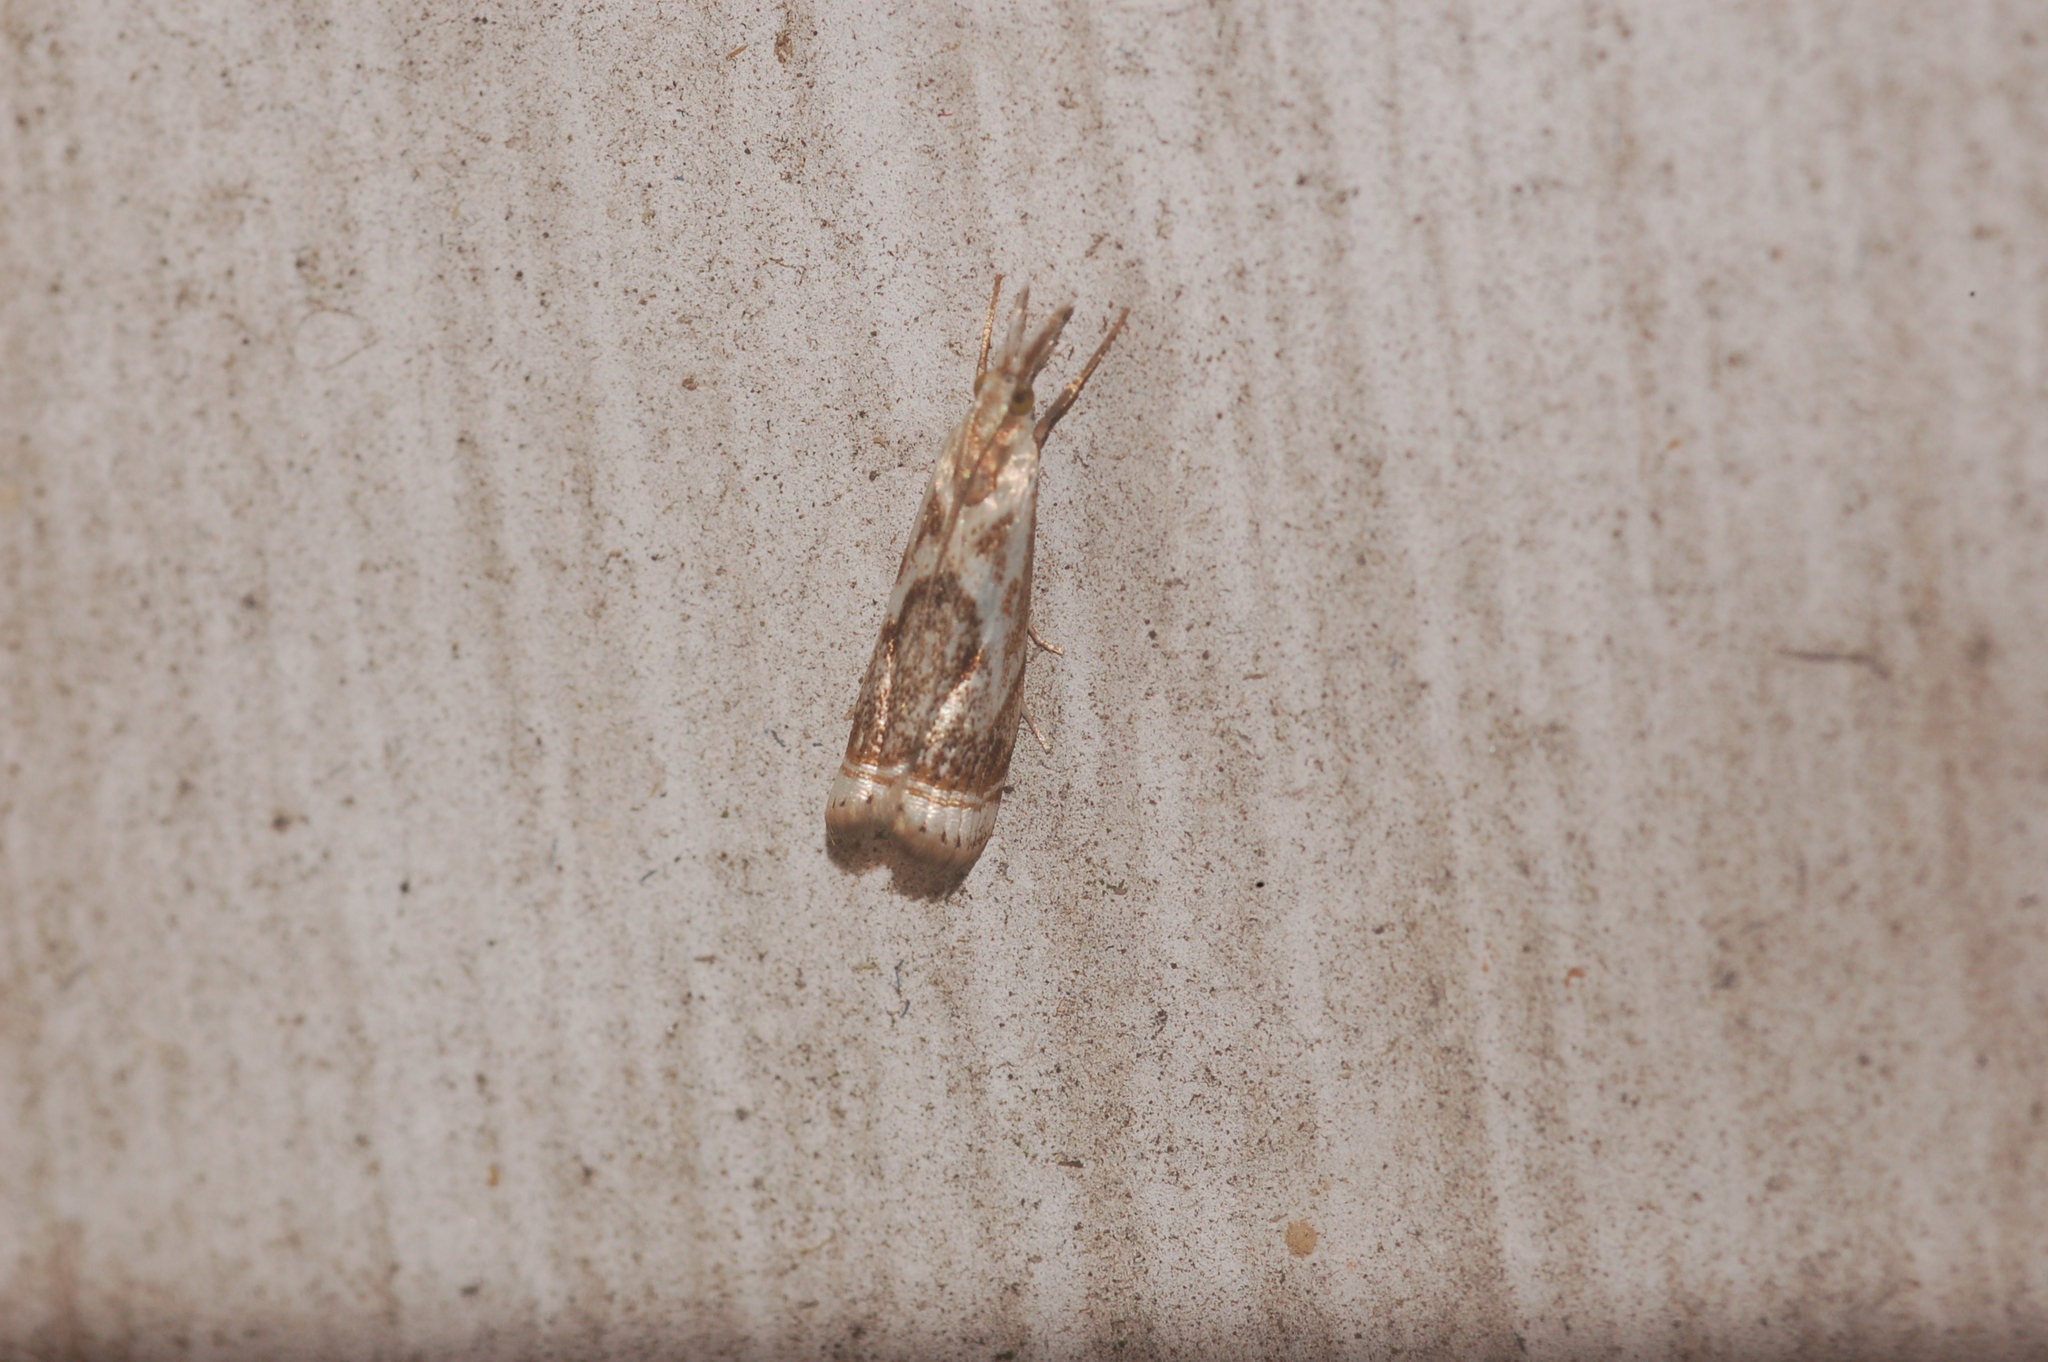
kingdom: Animalia
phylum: Arthropoda
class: Insecta
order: Lepidoptera
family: Crambidae
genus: Microcrambus
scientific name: Microcrambus elegans
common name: Elegant grass-veneer
